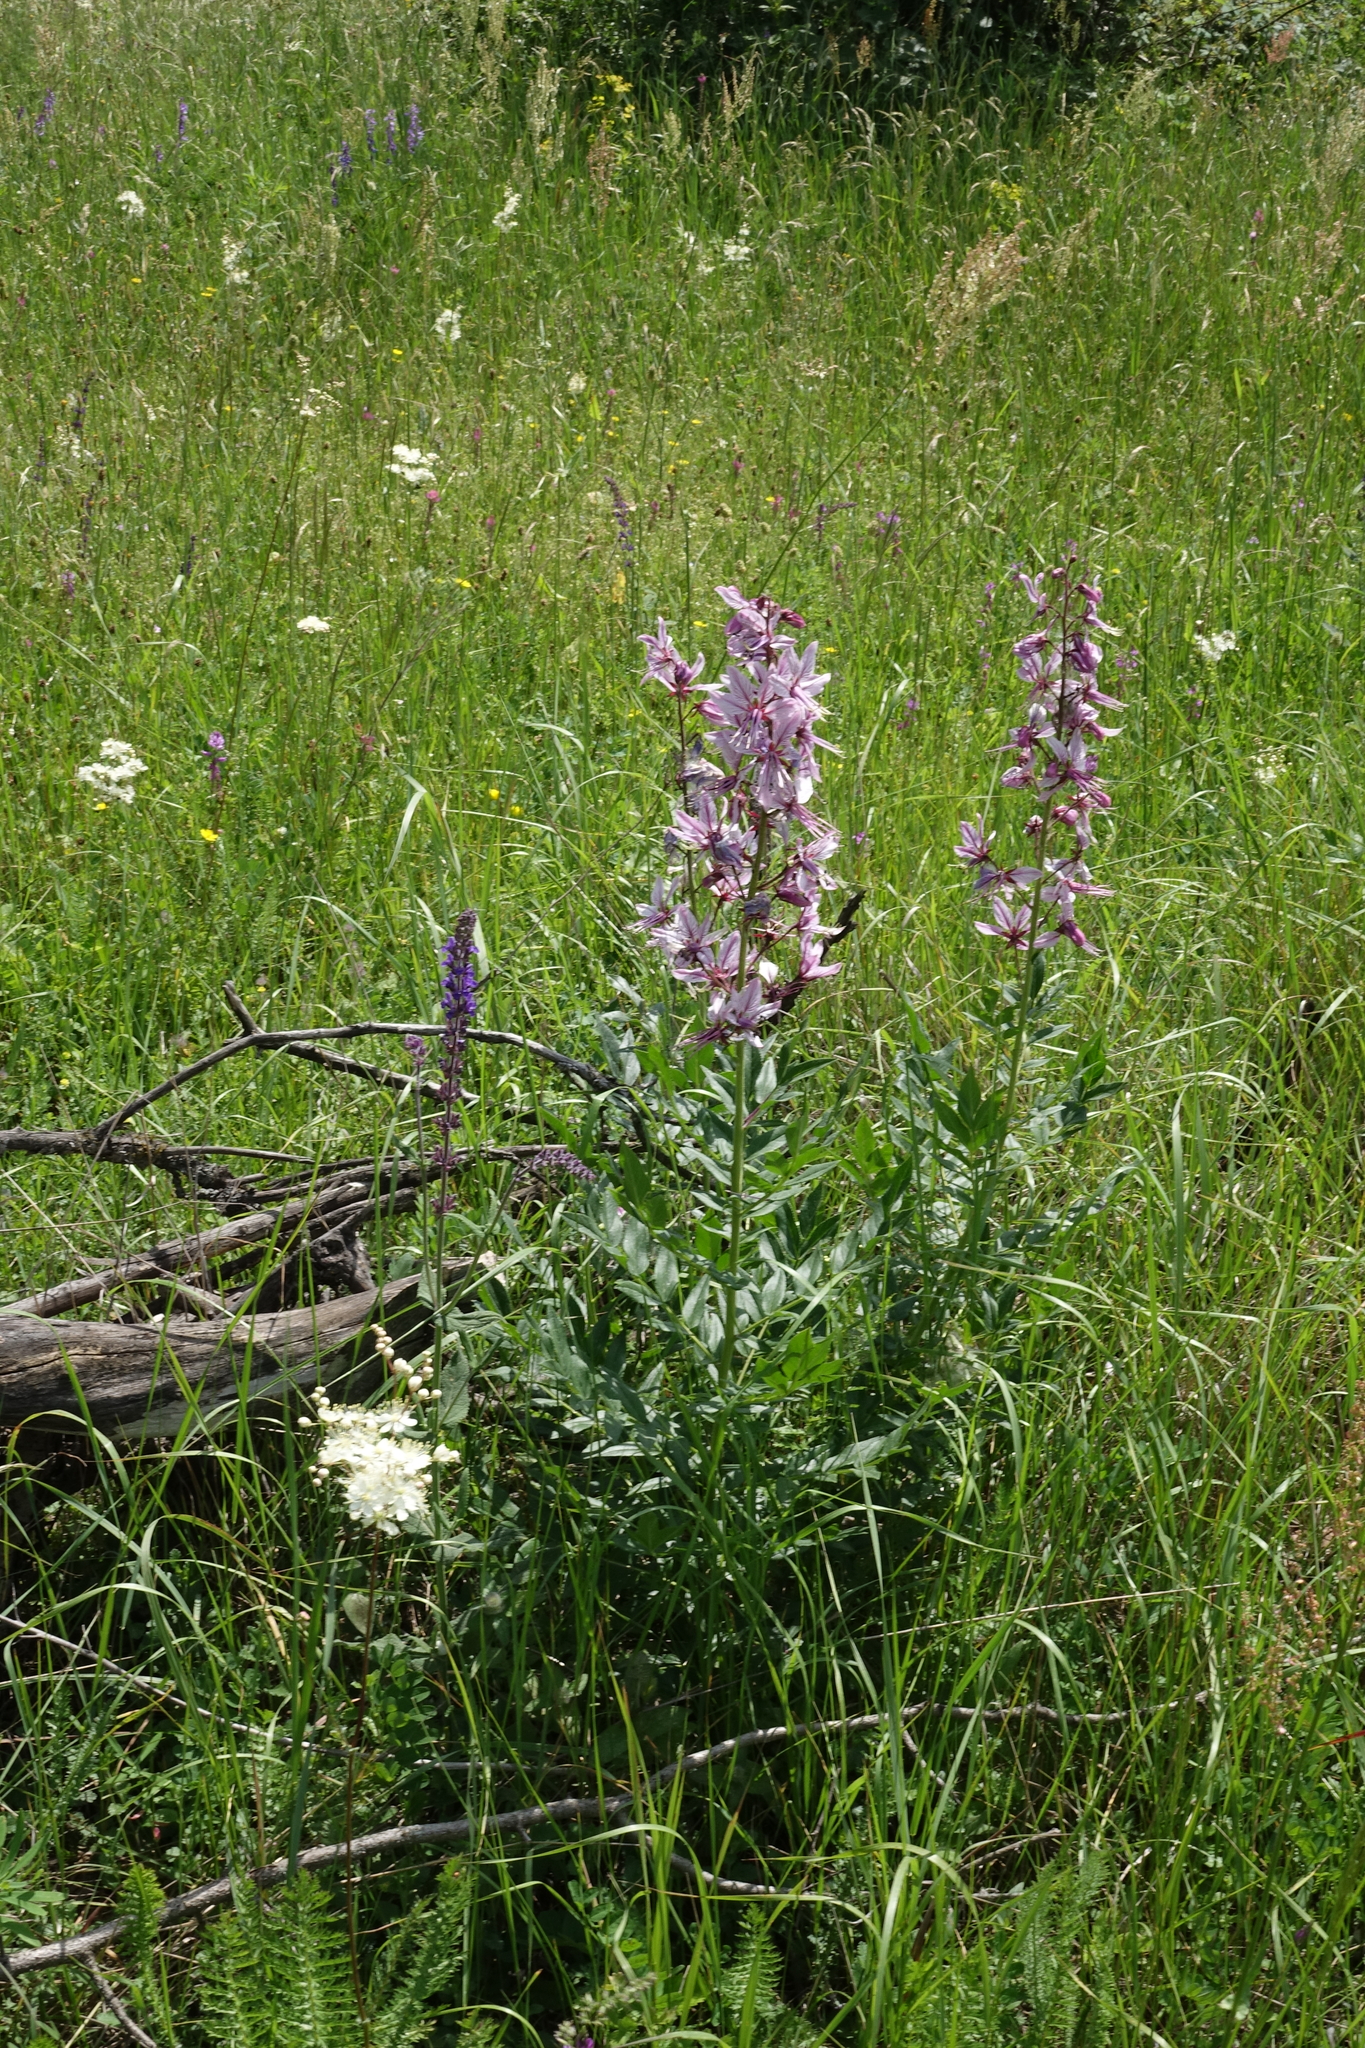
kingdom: Plantae
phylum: Tracheophyta
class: Magnoliopsida
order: Sapindales
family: Rutaceae
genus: Dictamnus
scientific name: Dictamnus albus
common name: Gasplant
